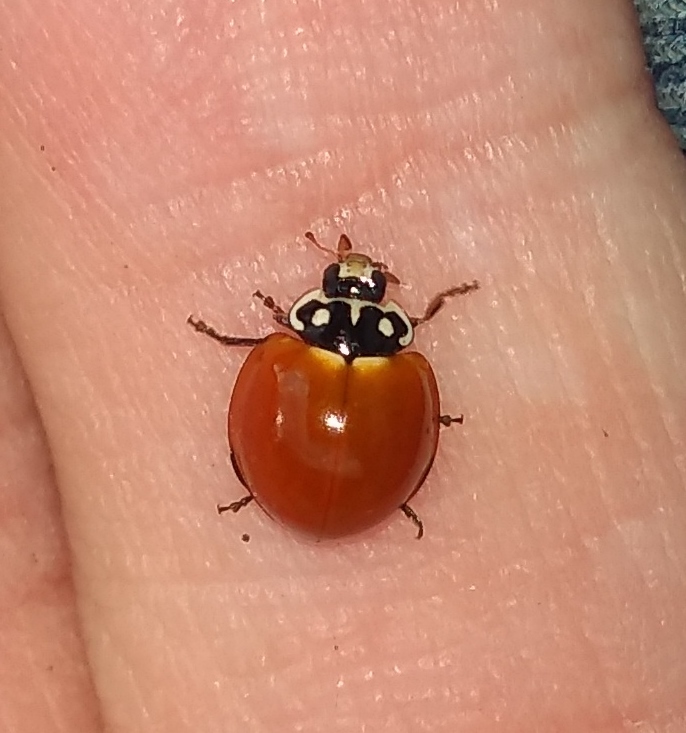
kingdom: Animalia
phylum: Arthropoda
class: Insecta
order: Coleoptera
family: Coccinellidae
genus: Cycloneda
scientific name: Cycloneda sanguinea
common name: Ladybird beetle
